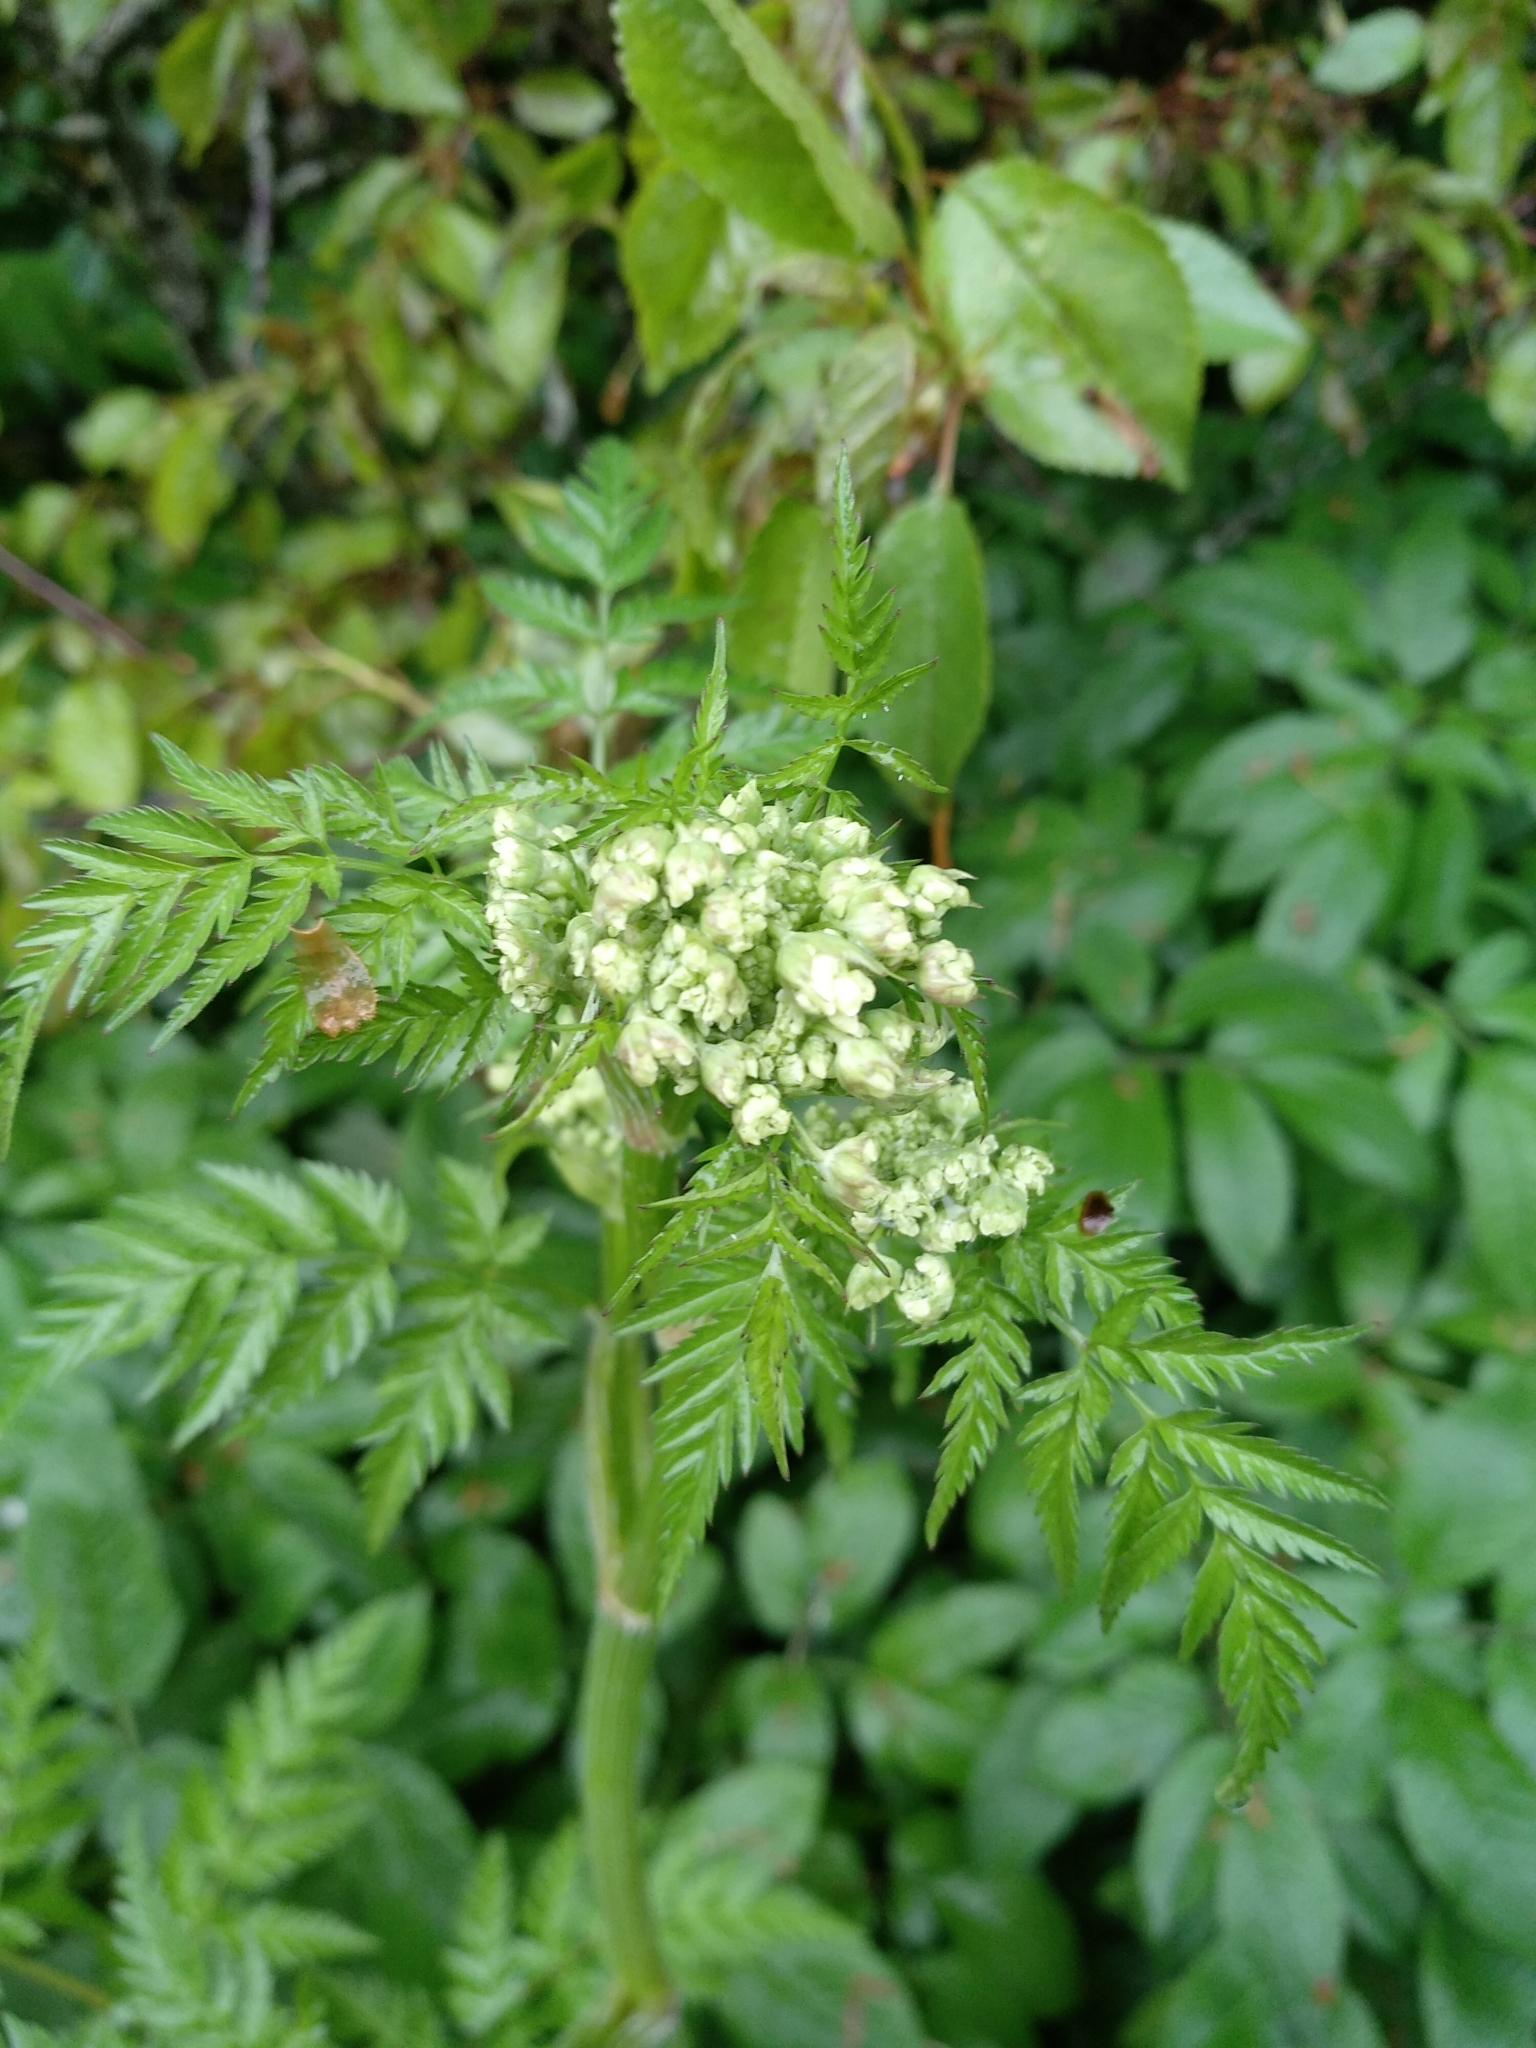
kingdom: Plantae
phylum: Tracheophyta
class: Magnoliopsida
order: Apiales
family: Apiaceae
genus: Anthriscus
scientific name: Anthriscus sylvestris
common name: Cow parsley
